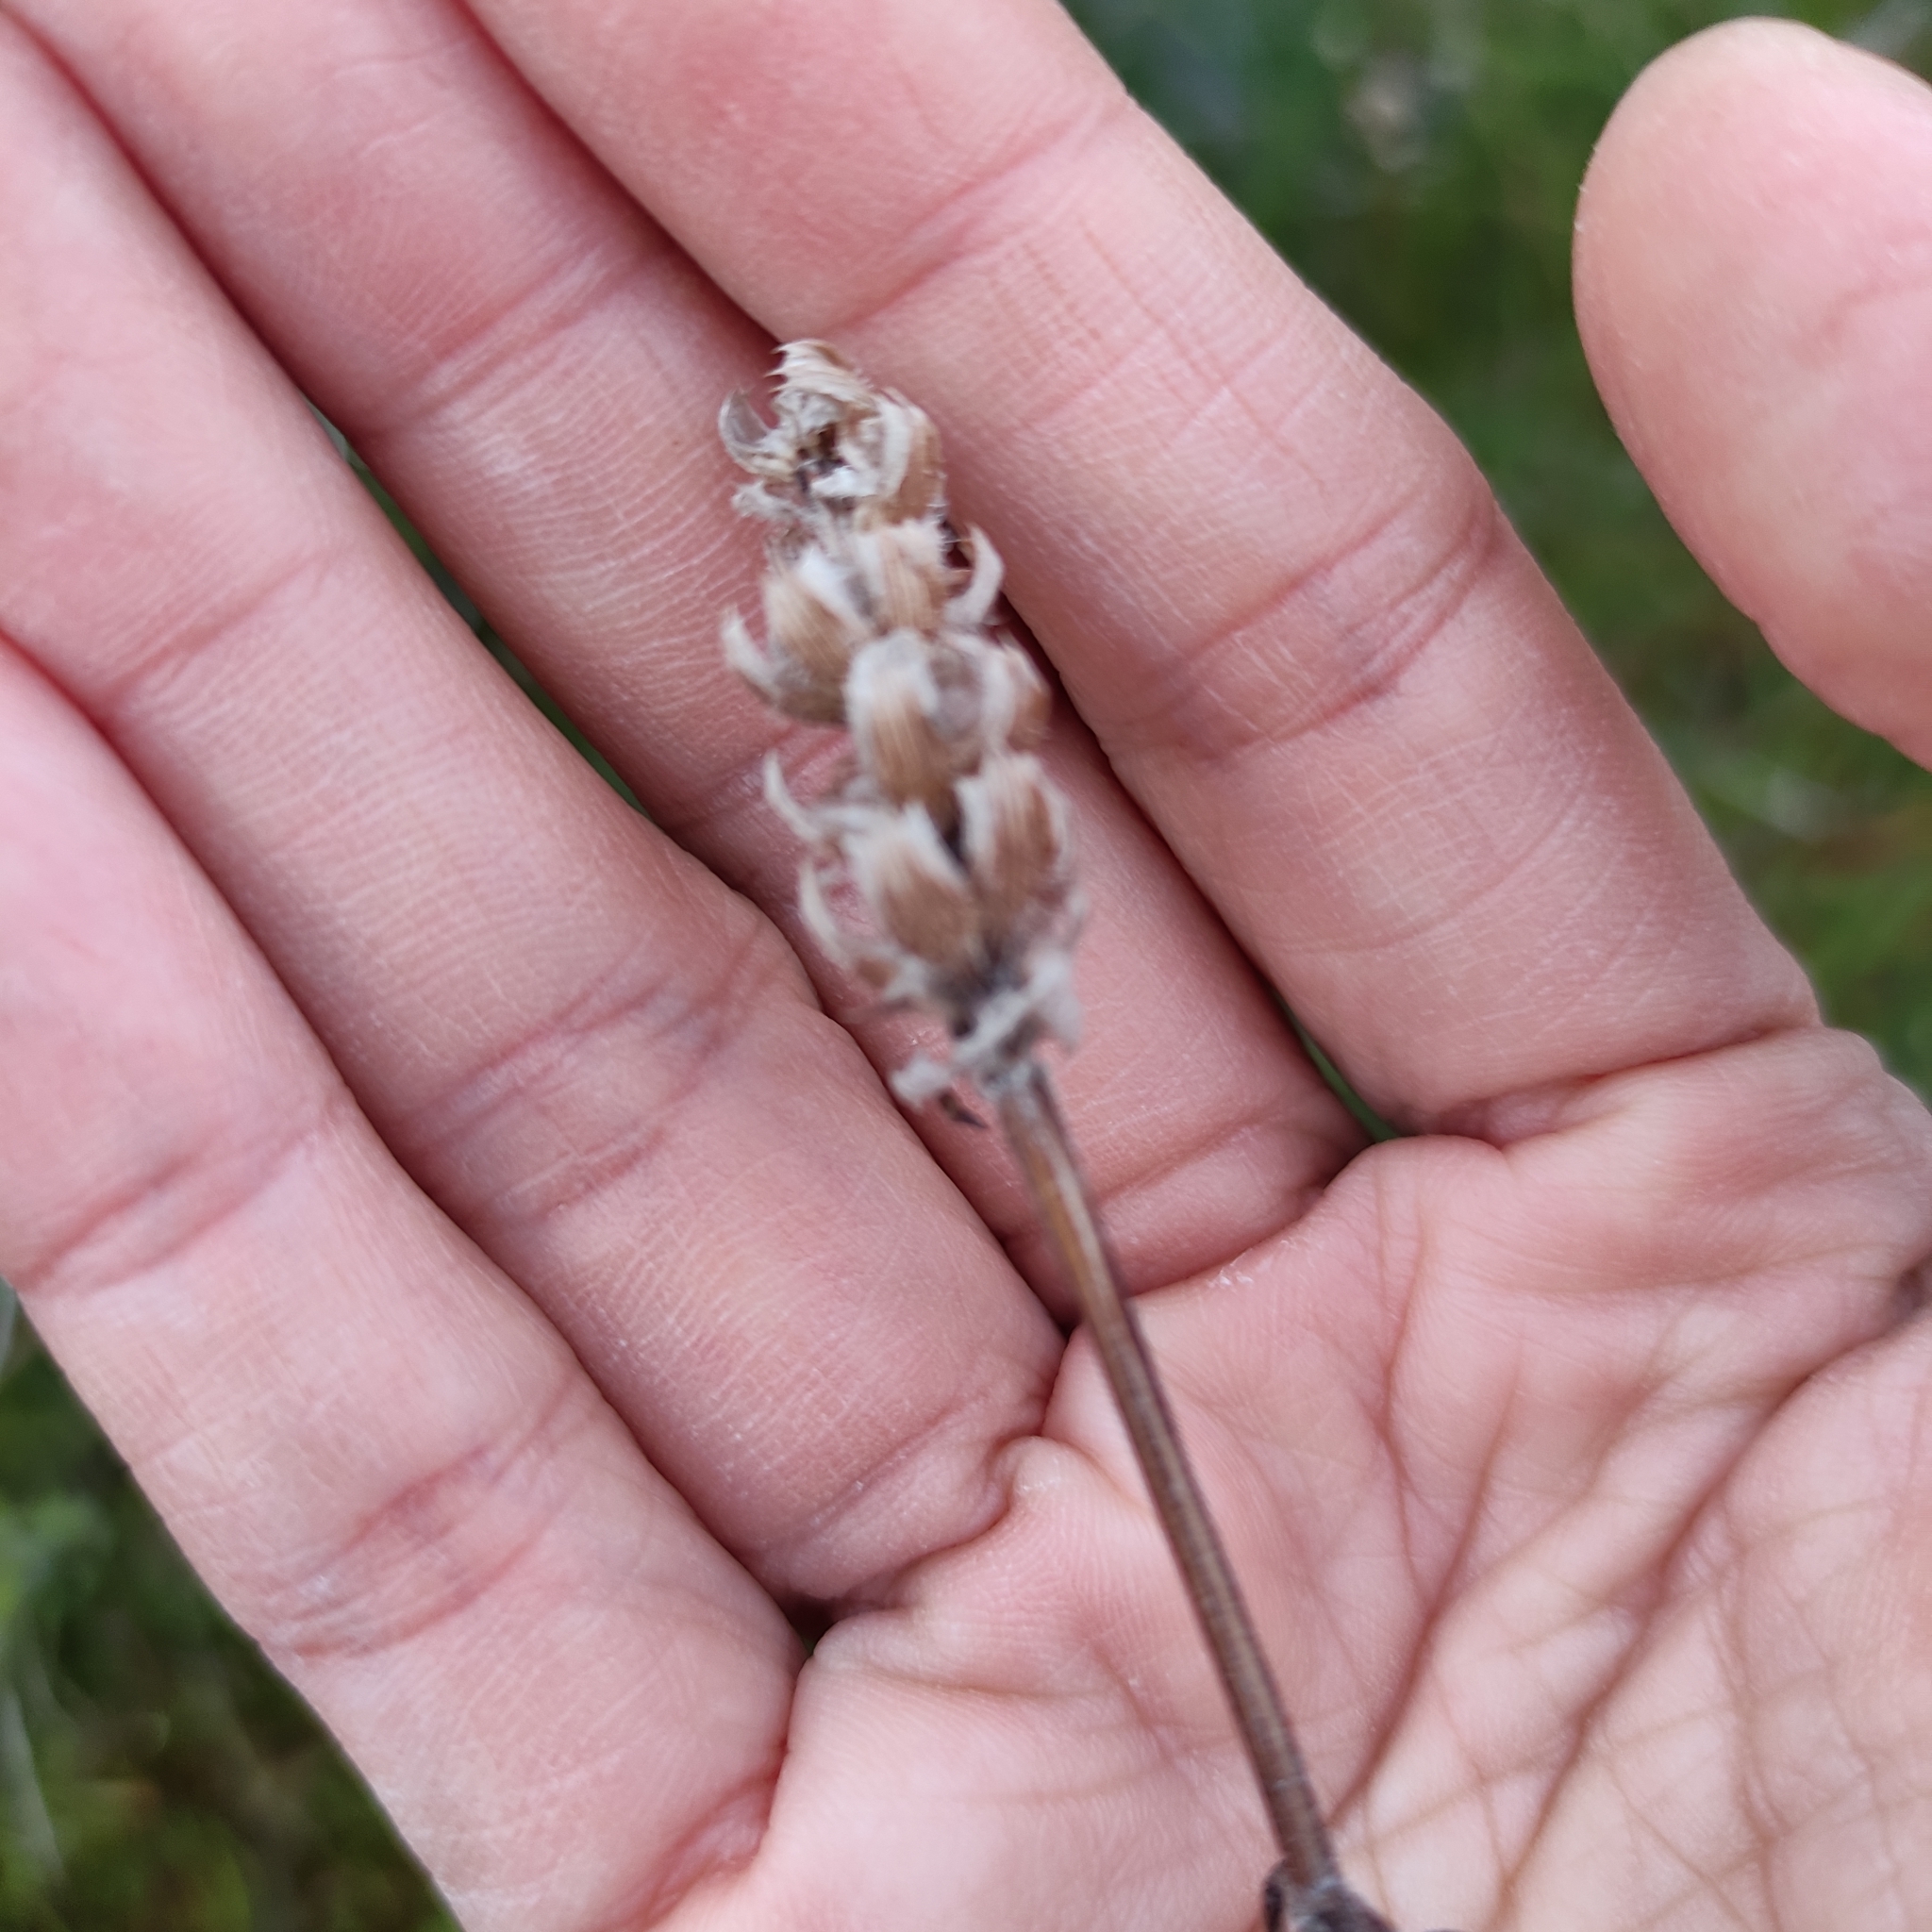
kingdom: Plantae
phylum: Tracheophyta
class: Magnoliopsida
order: Lamiales
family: Lamiaceae
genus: Prunella
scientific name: Prunella vulgaris
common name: Heal-all
